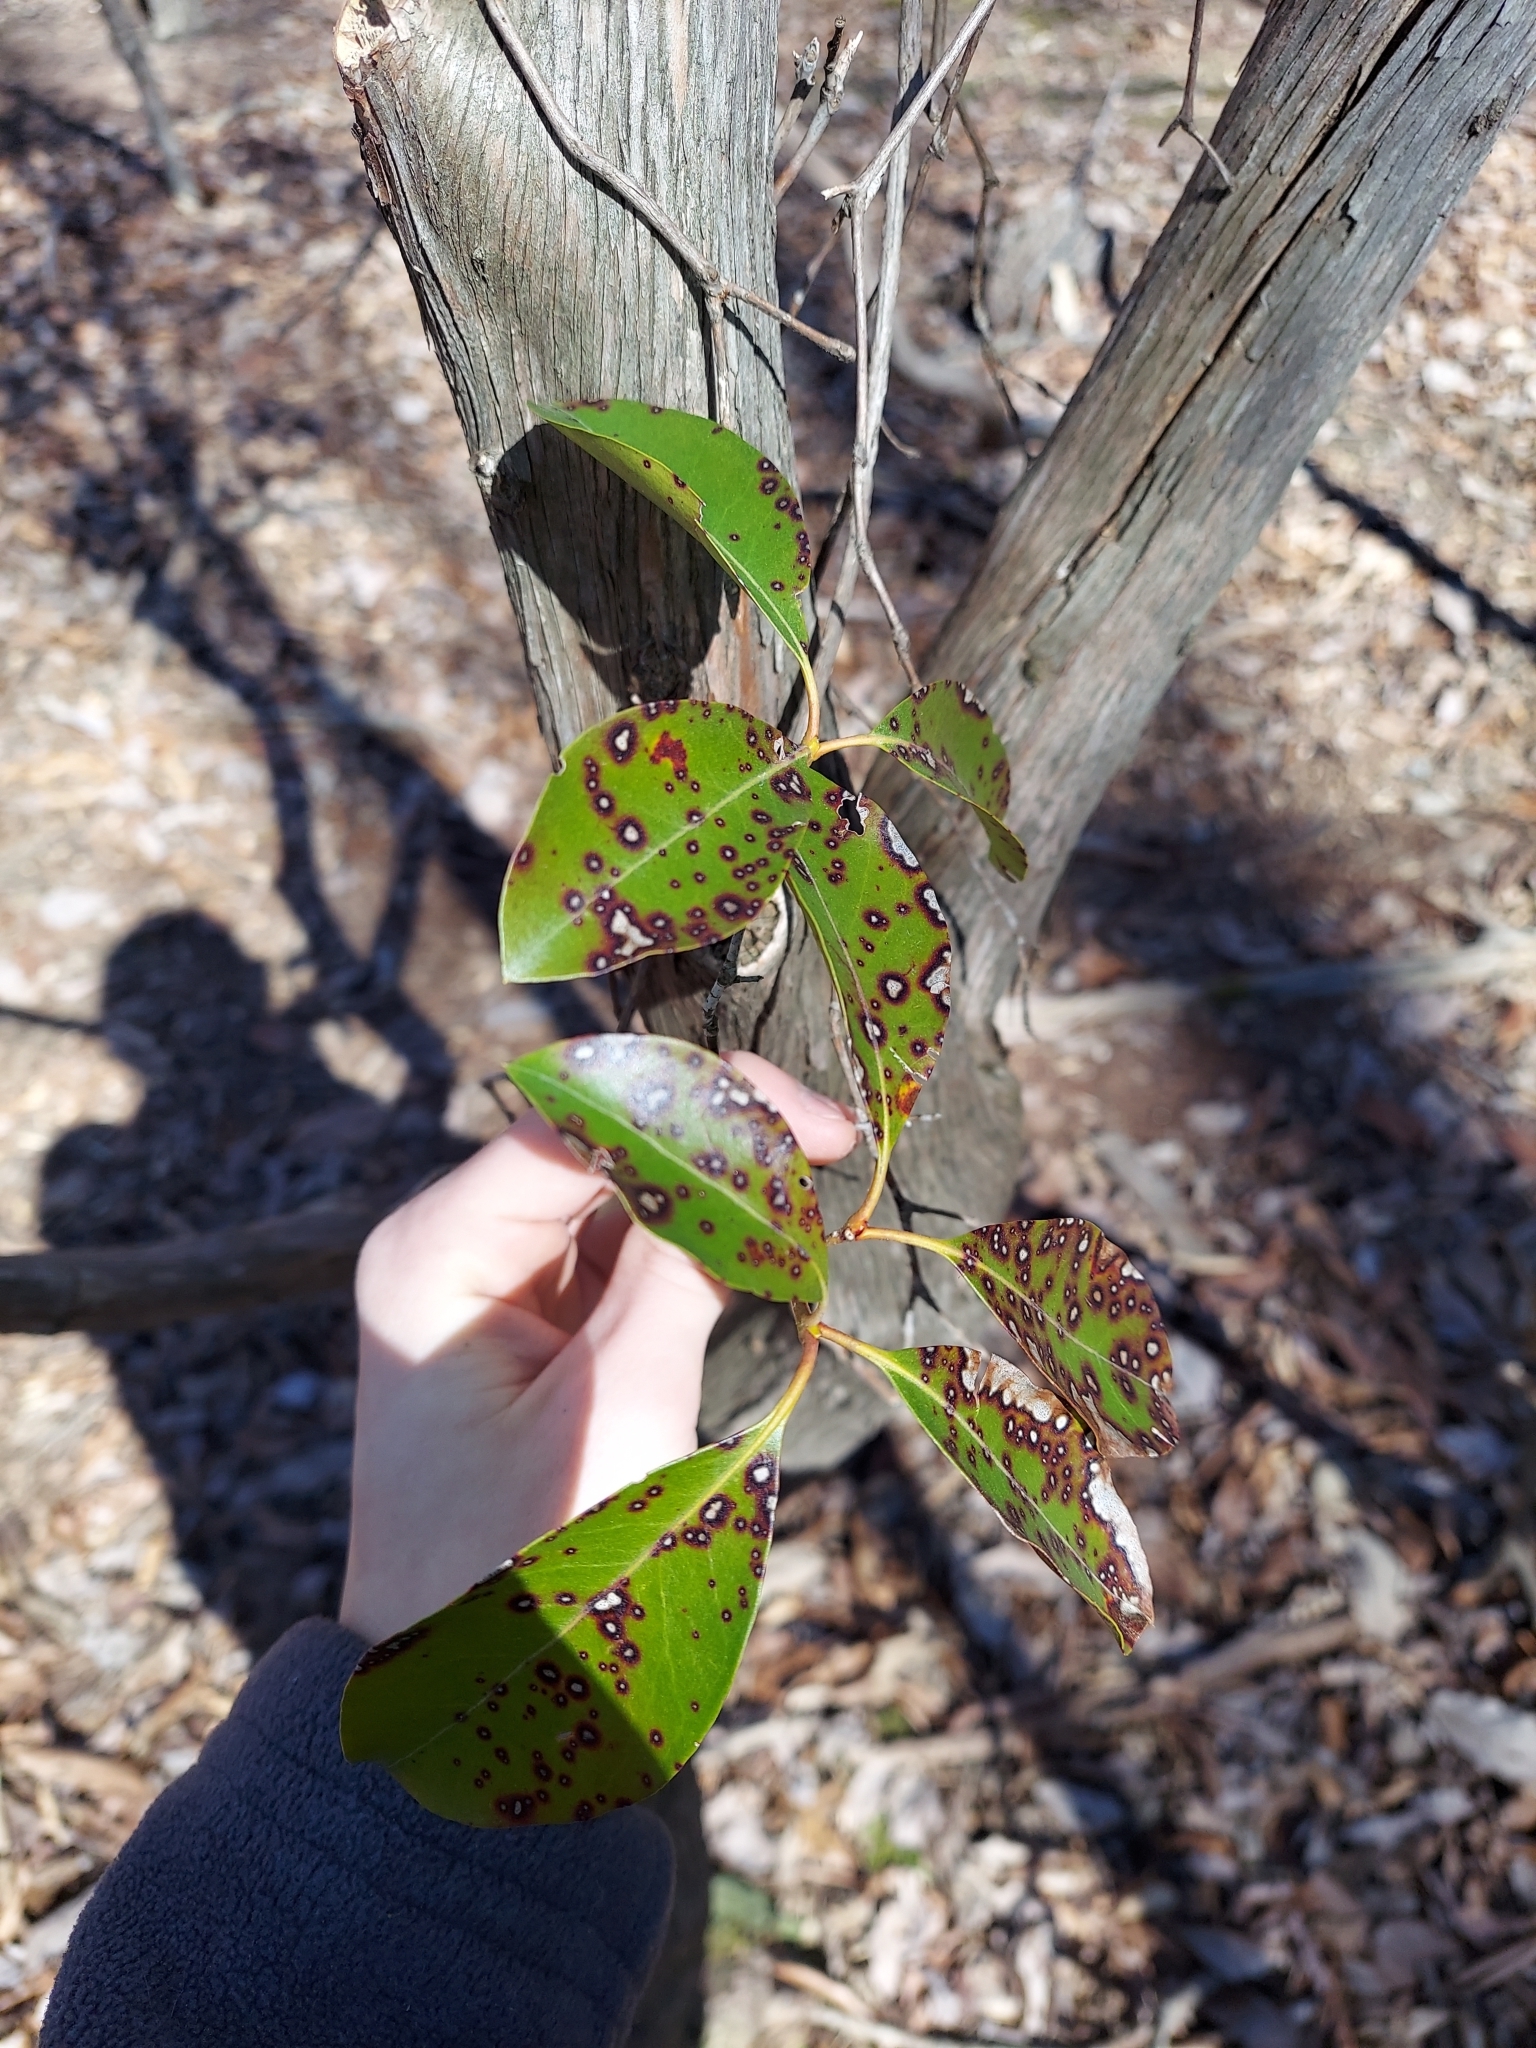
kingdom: Plantae
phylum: Tracheophyta
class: Magnoliopsida
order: Ericales
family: Ericaceae
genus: Kalmia
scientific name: Kalmia latifolia
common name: Mountain-laurel
